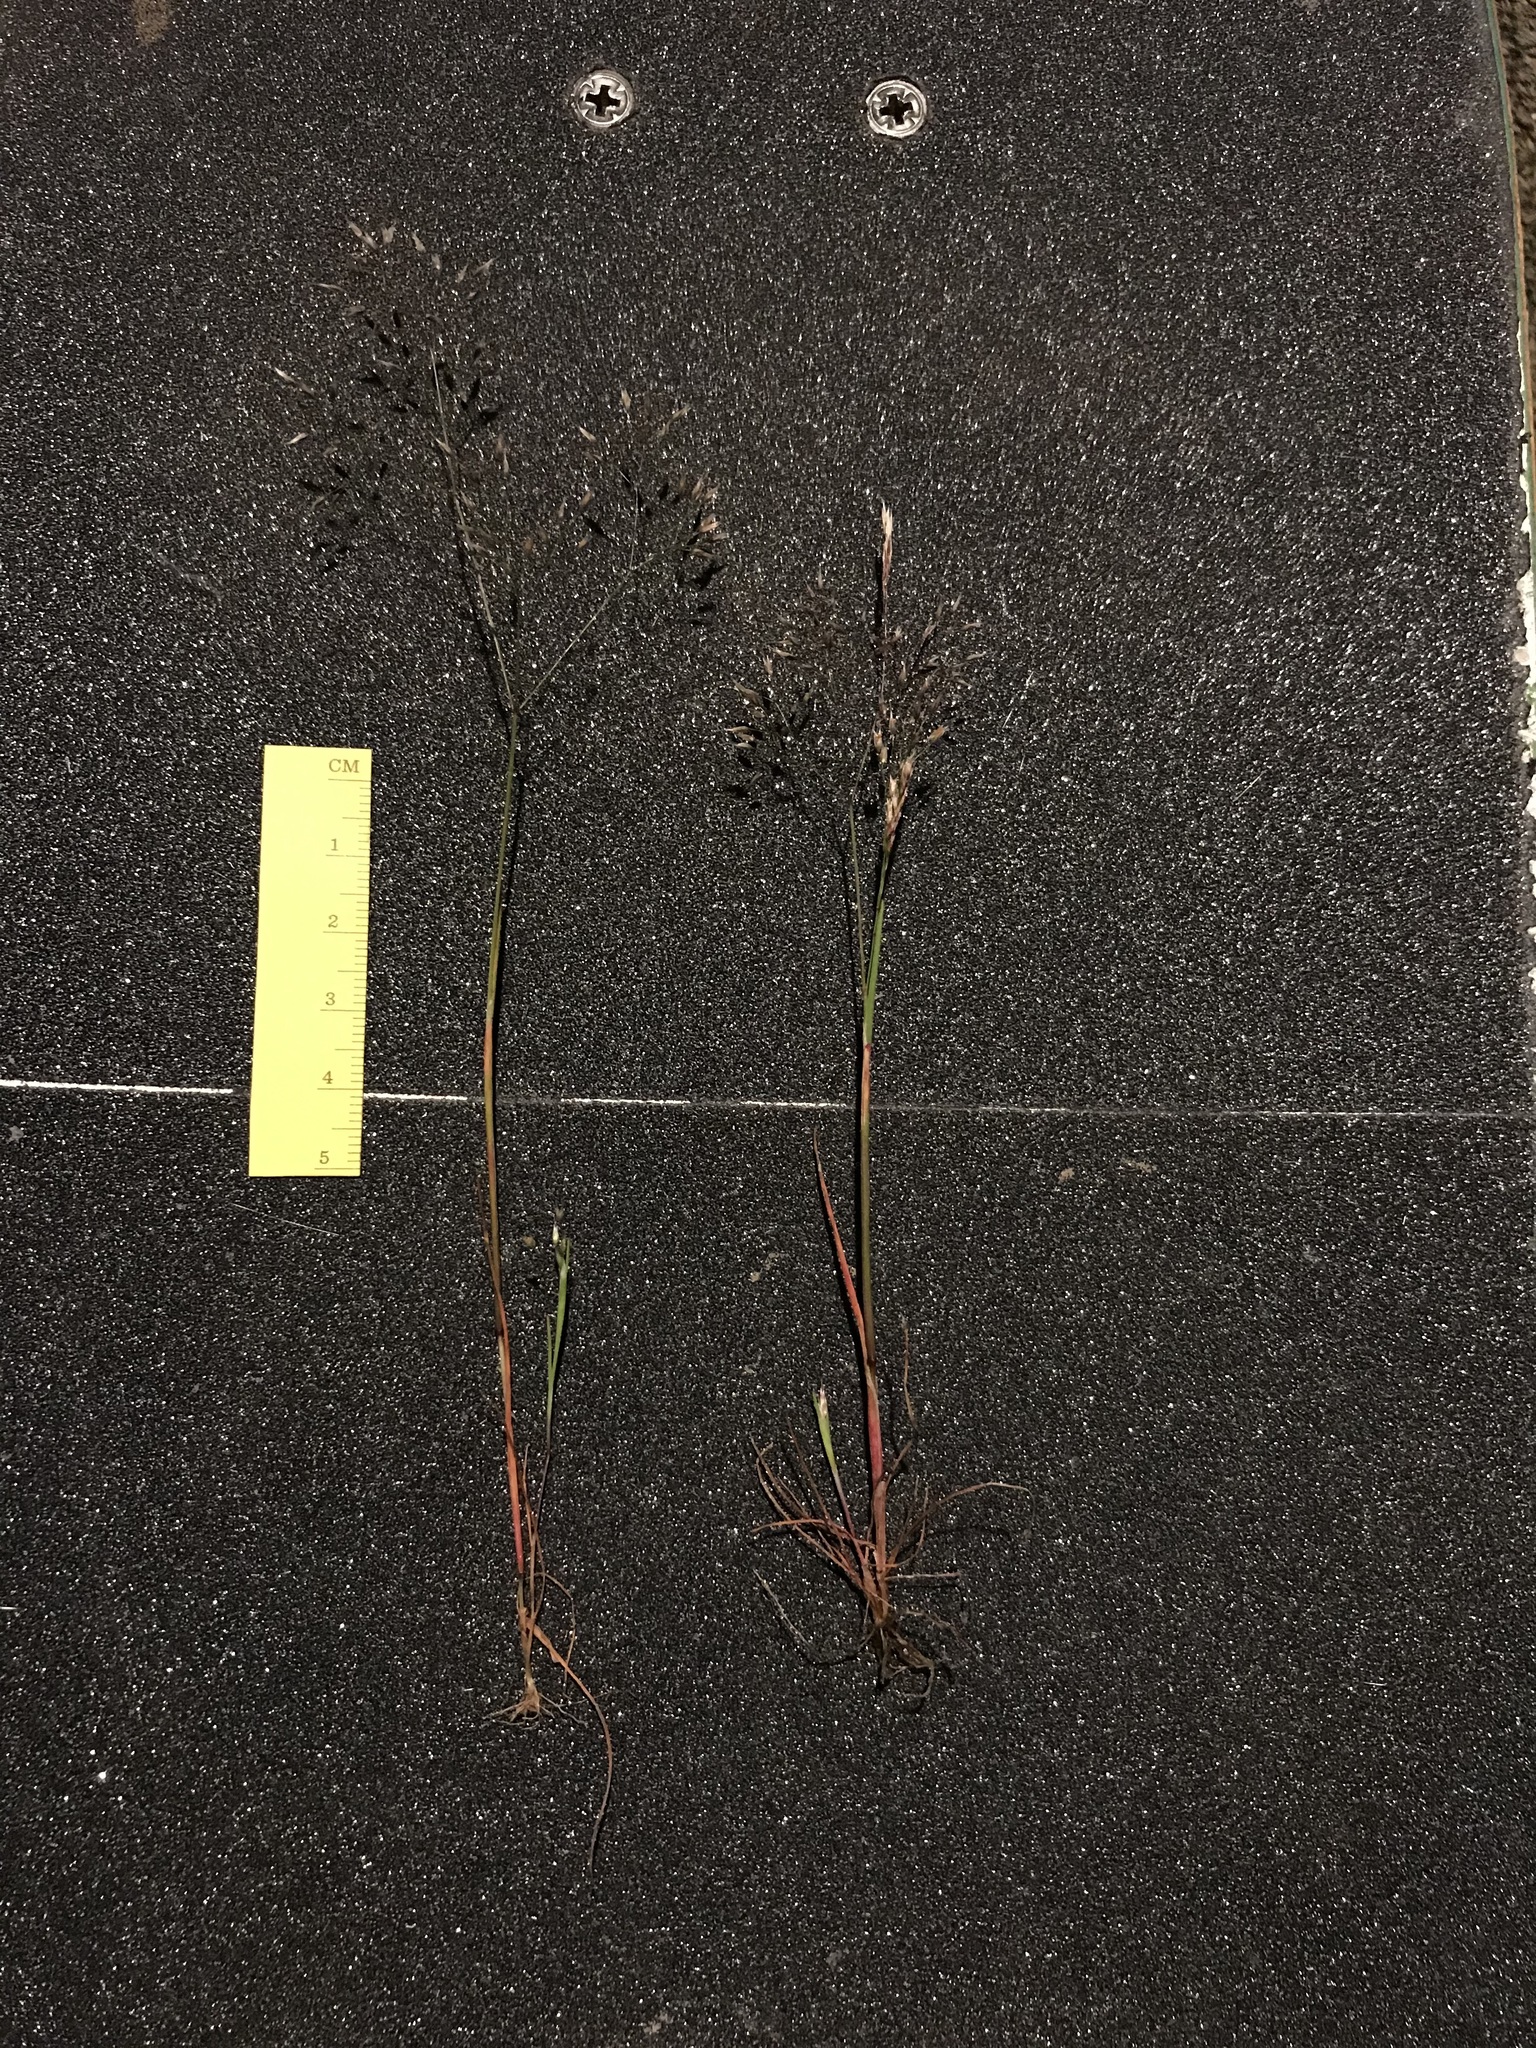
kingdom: Plantae
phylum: Tracheophyta
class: Liliopsida
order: Poales
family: Poaceae
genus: Aira
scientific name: Aira caryophyllea
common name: Silver hairgrass
